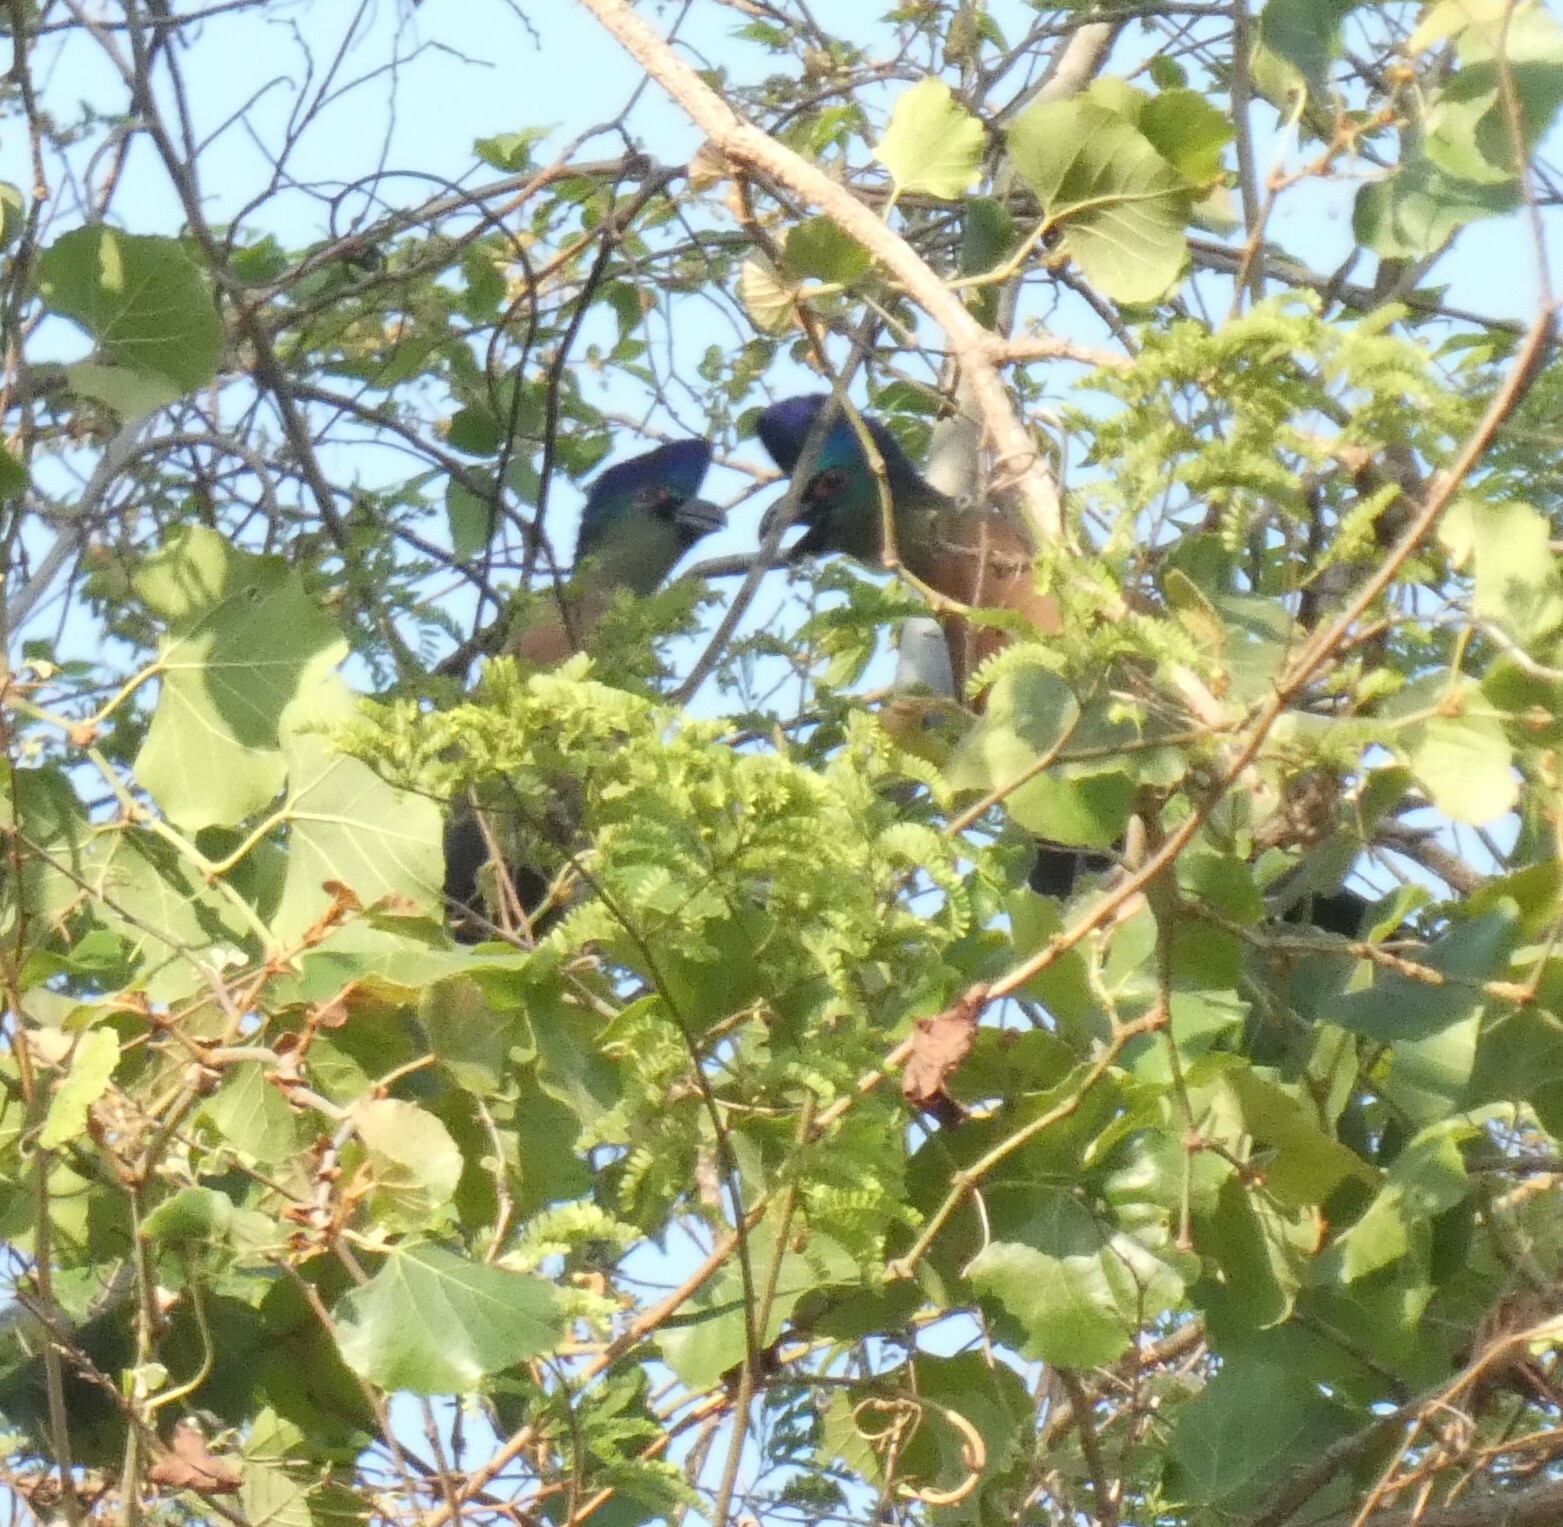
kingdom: Animalia
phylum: Chordata
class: Aves
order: Musophagiformes
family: Musophagidae
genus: Tauraco
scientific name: Tauraco porphyreolophus
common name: Purple-crested turaco
